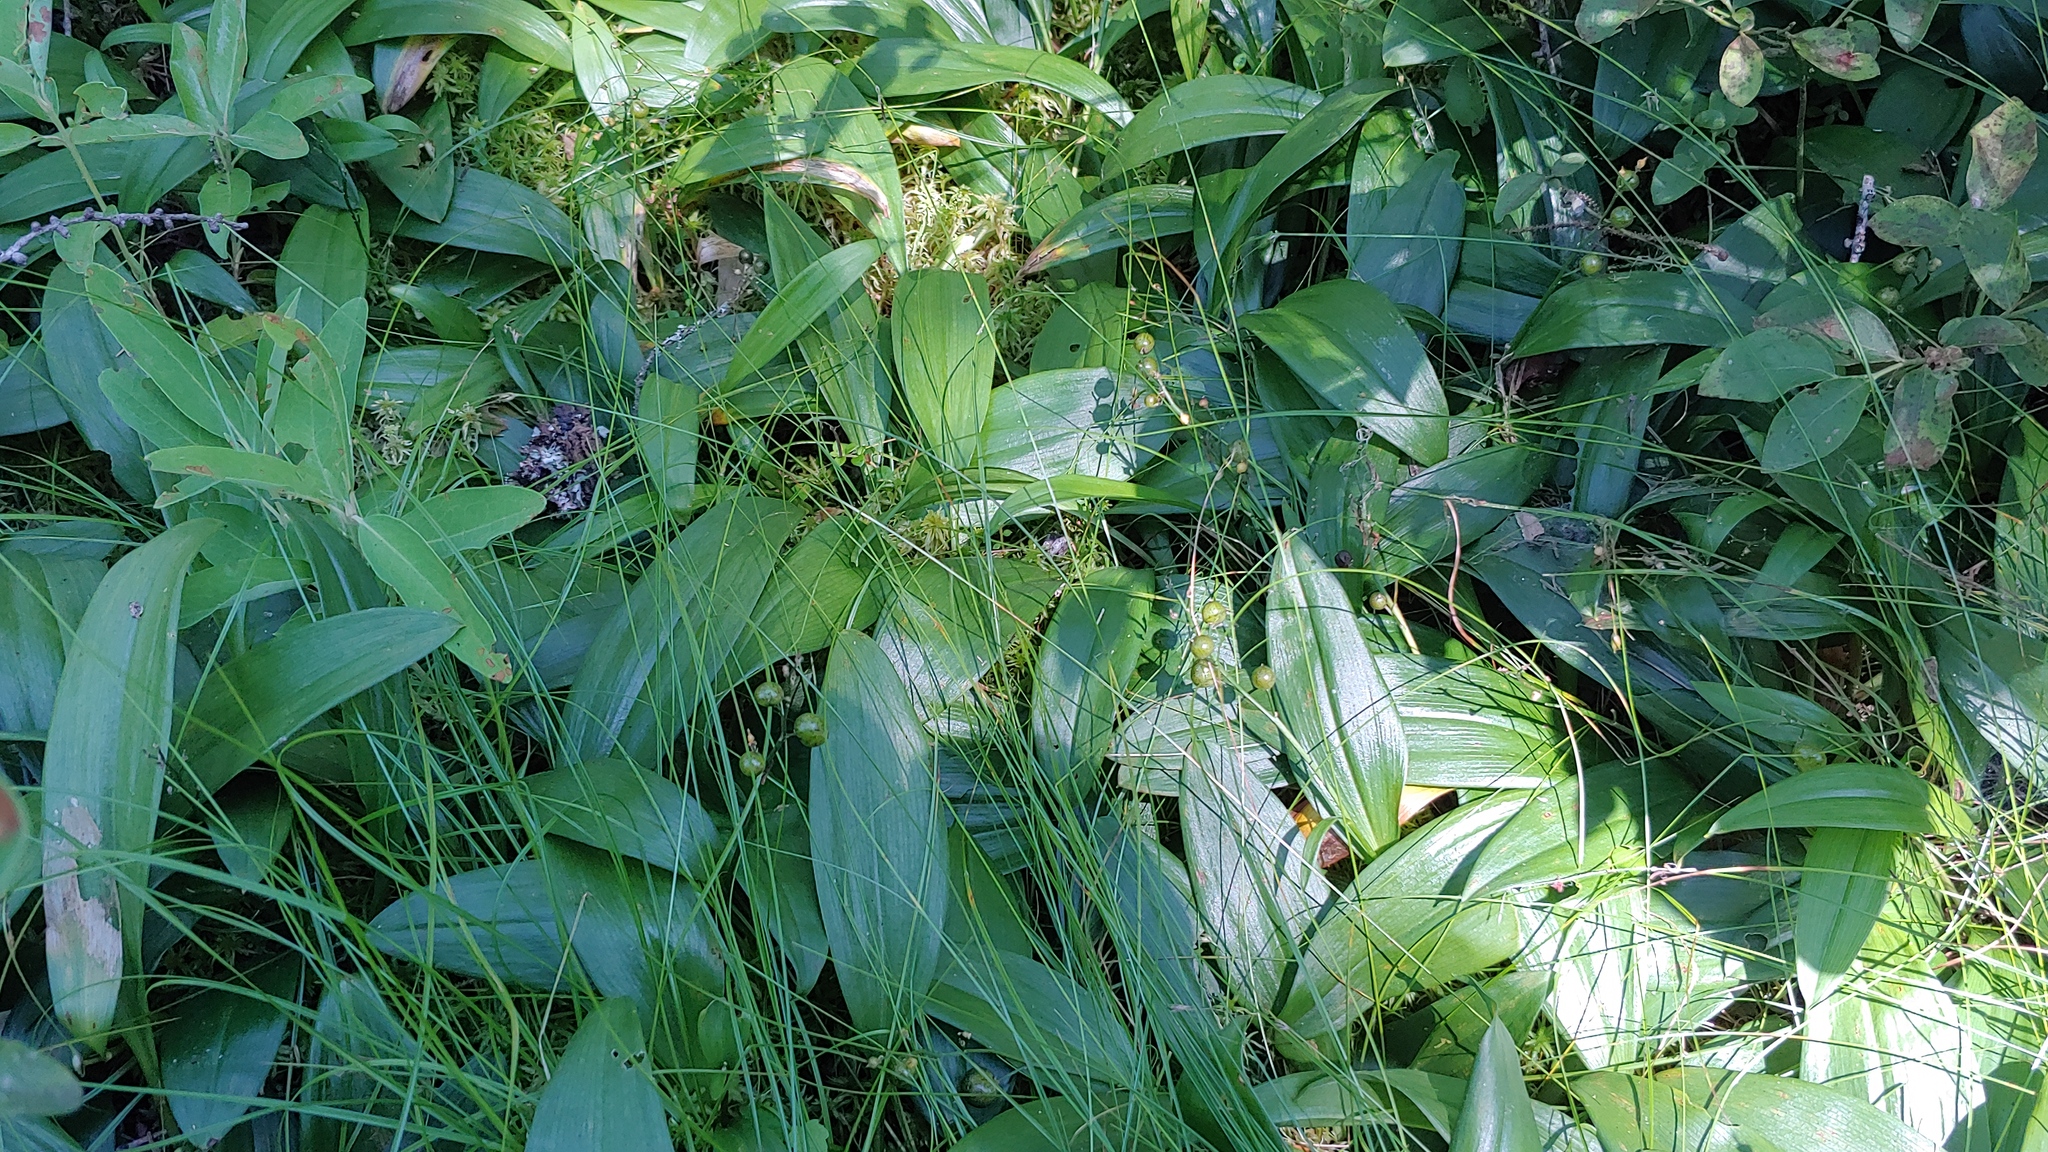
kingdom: Plantae
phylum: Tracheophyta
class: Liliopsida
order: Asparagales
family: Asparagaceae
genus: Maianthemum
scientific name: Maianthemum trifolium
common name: Swamp false solomon's seal
